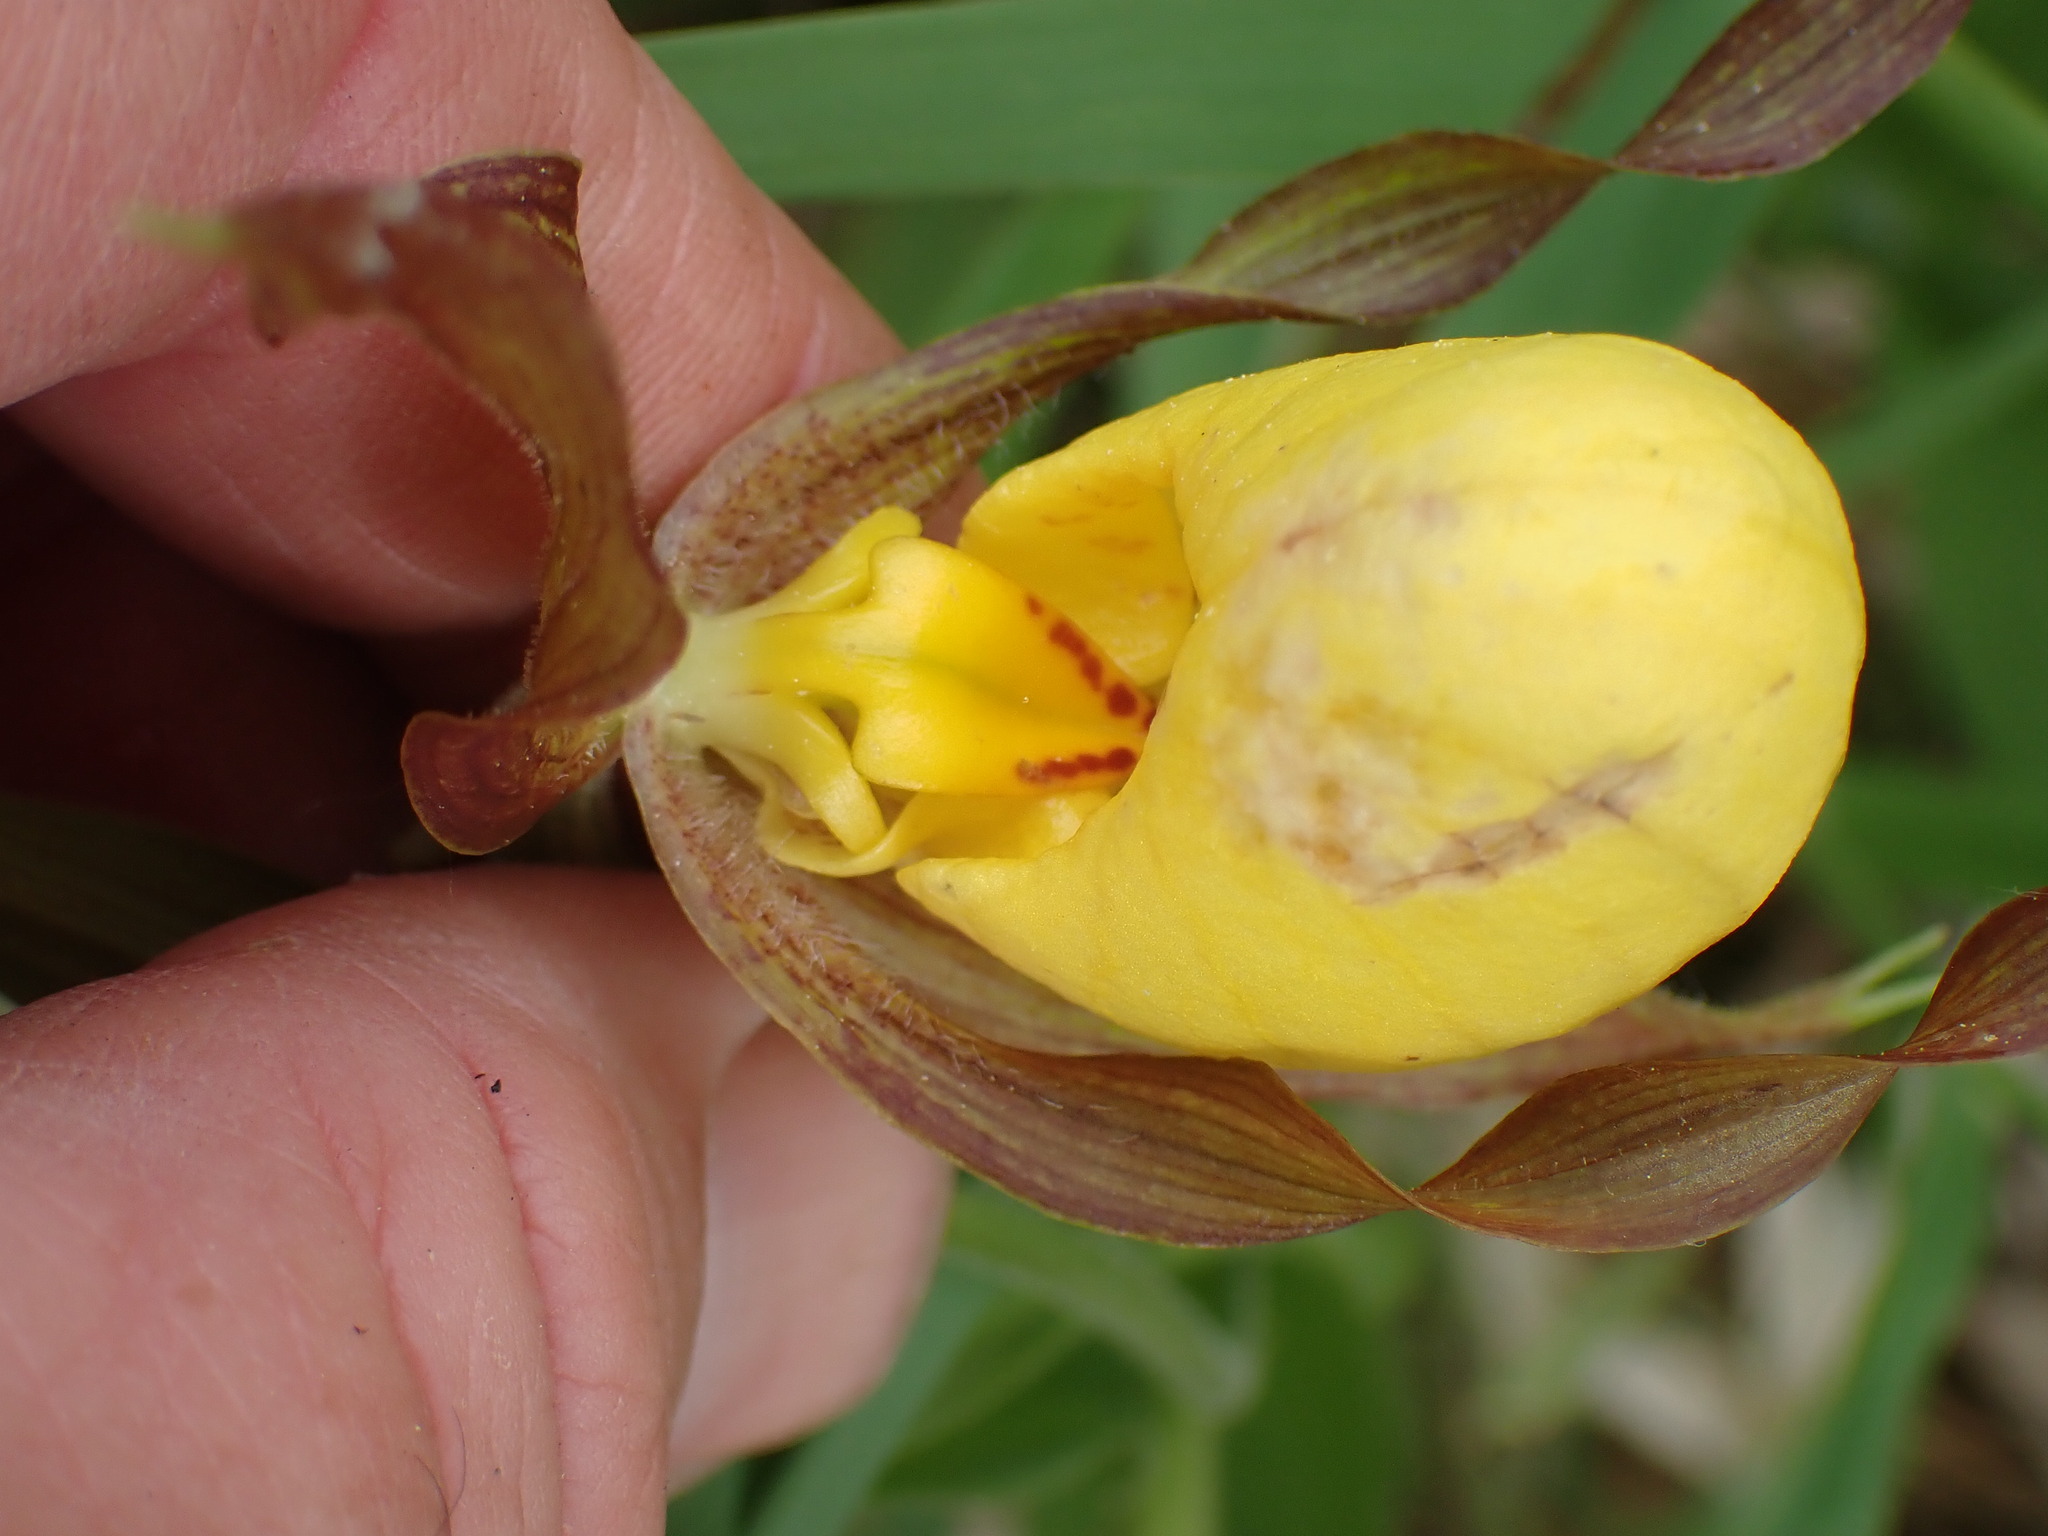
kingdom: Plantae
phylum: Tracheophyta
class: Liliopsida
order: Asparagales
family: Orchidaceae
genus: Cypripedium
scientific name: Cypripedium parviflorum
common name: American yellow lady's-slipper
